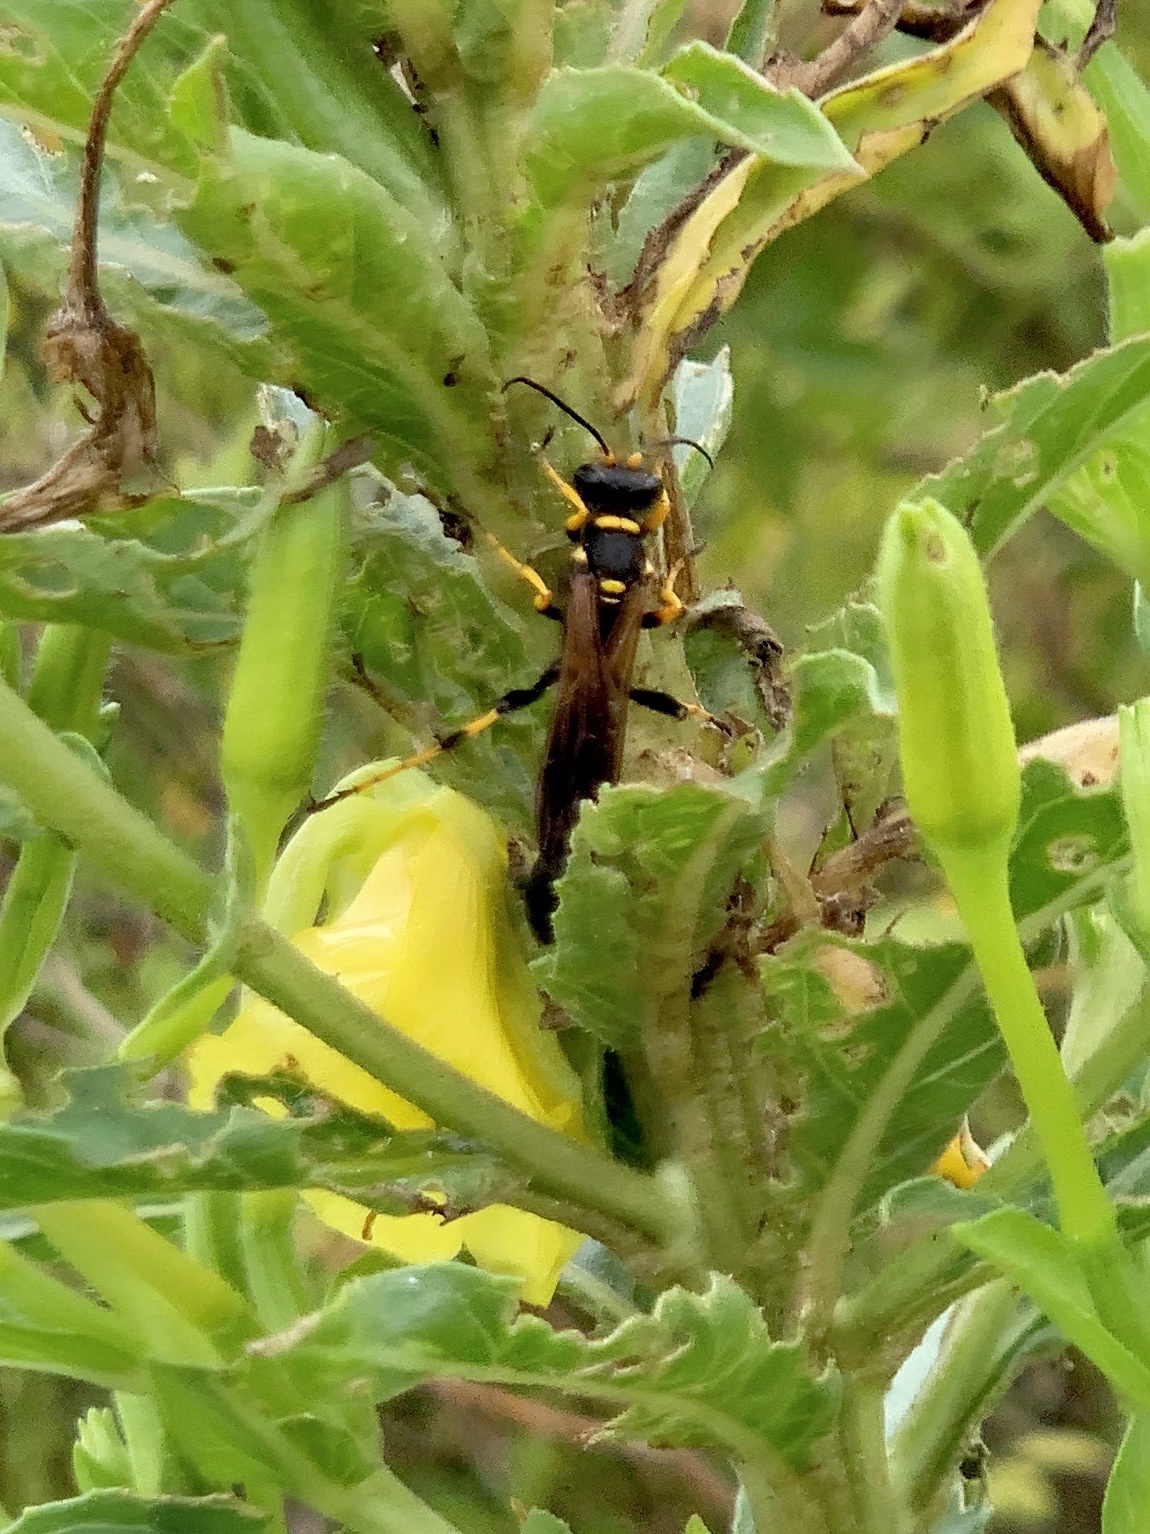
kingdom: Animalia
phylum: Arthropoda
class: Insecta
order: Hymenoptera
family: Sphecidae
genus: Sceliphron
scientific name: Sceliphron caementarium
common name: Mud dauber
